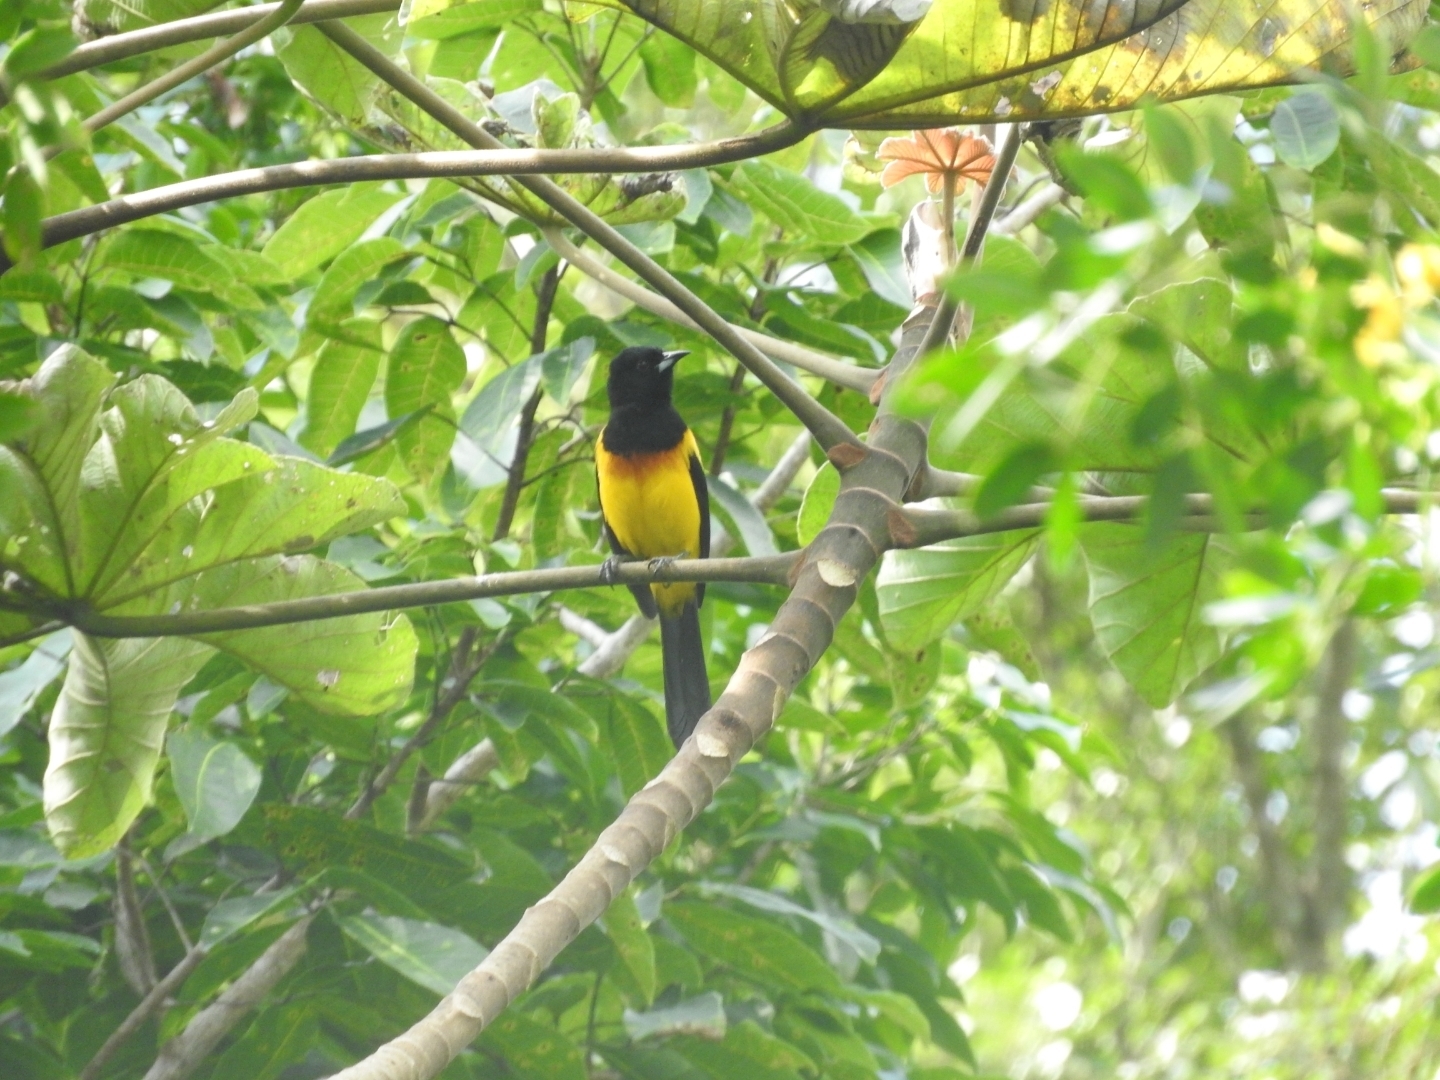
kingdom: Animalia
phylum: Chordata
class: Aves
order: Passeriformes
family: Icteridae
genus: Icterus
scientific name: Icterus prosthemelas
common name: Black-cowled oriole
